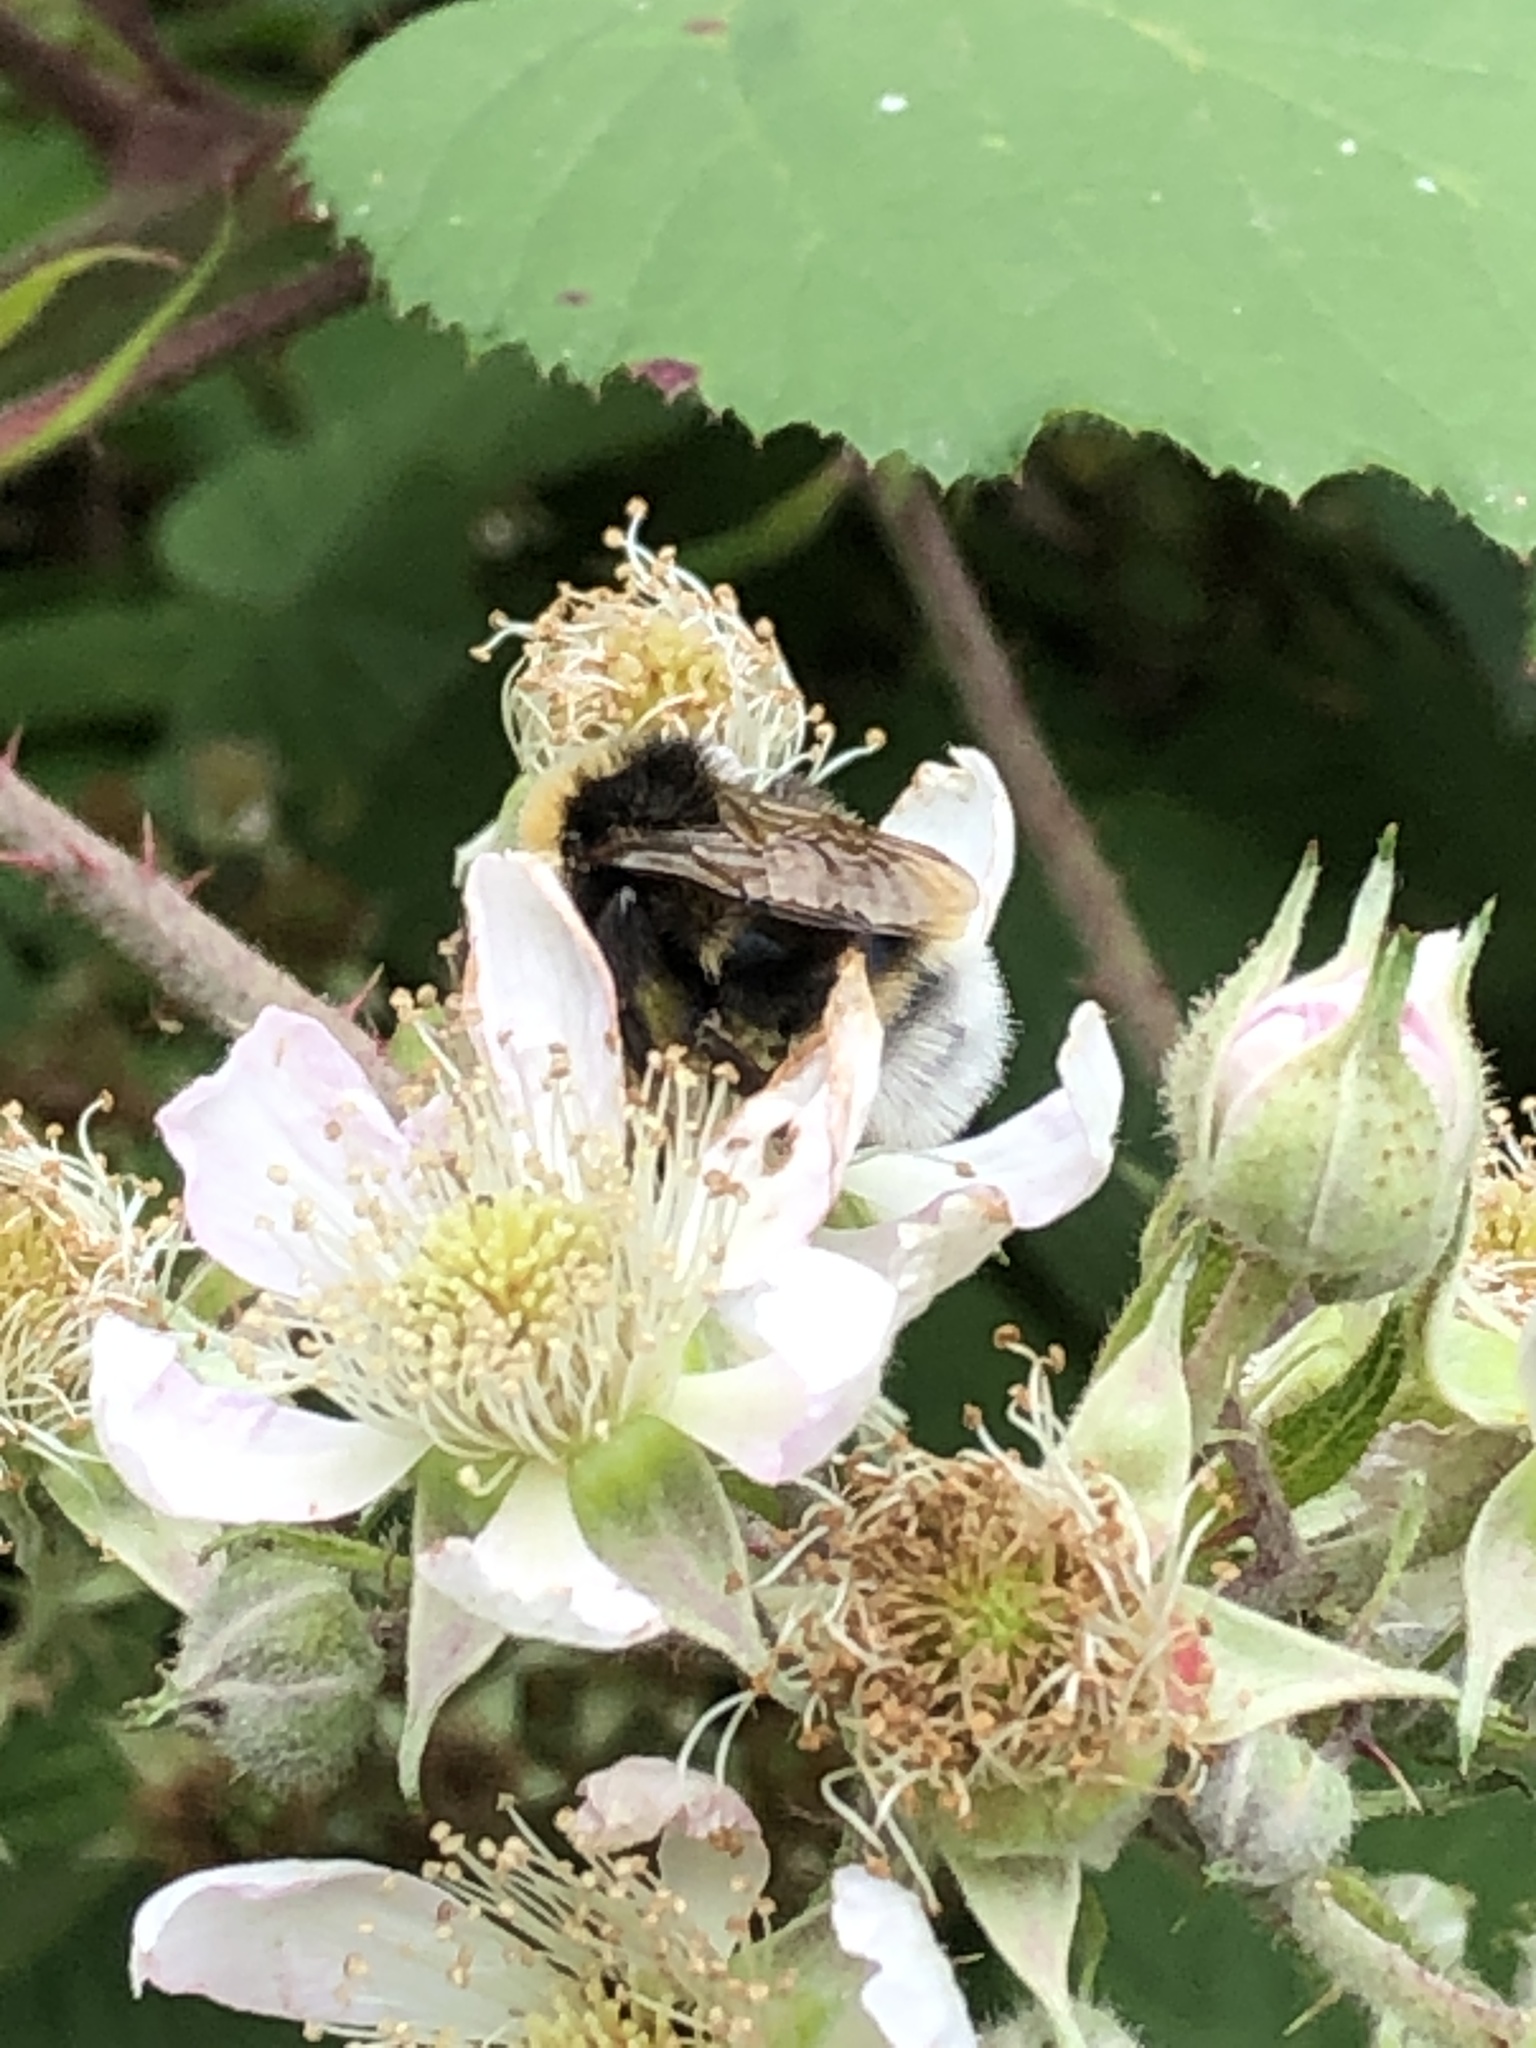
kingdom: Animalia
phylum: Arthropoda
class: Insecta
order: Hymenoptera
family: Apidae
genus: Bombus
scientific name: Bombus
